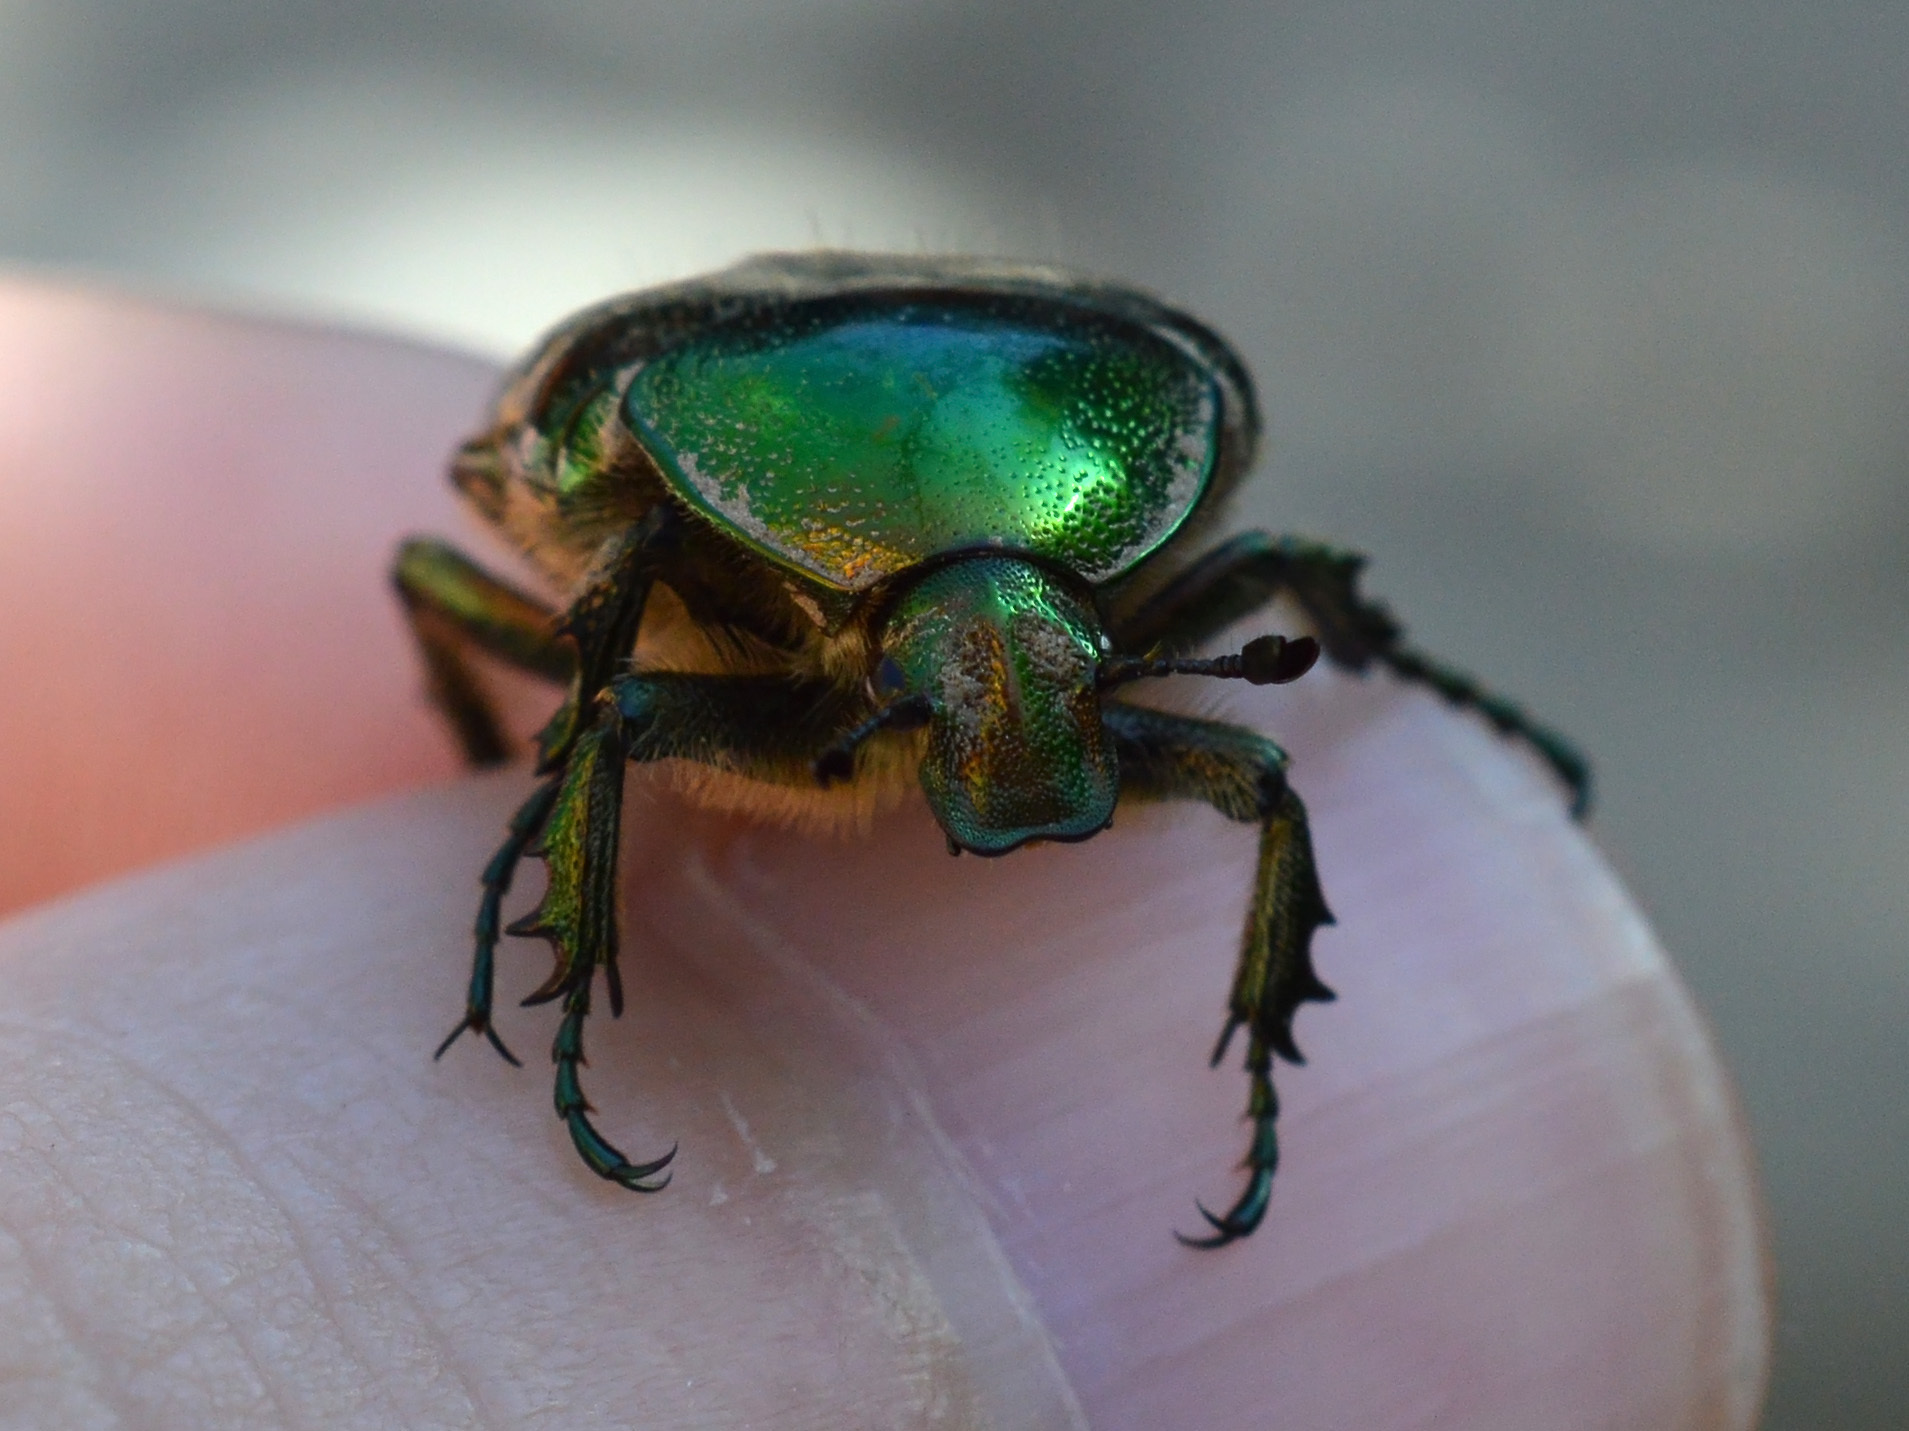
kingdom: Animalia
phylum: Arthropoda
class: Insecta
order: Coleoptera
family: Scarabaeidae
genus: Cetonia
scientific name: Cetonia aurata
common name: Rose chafer
